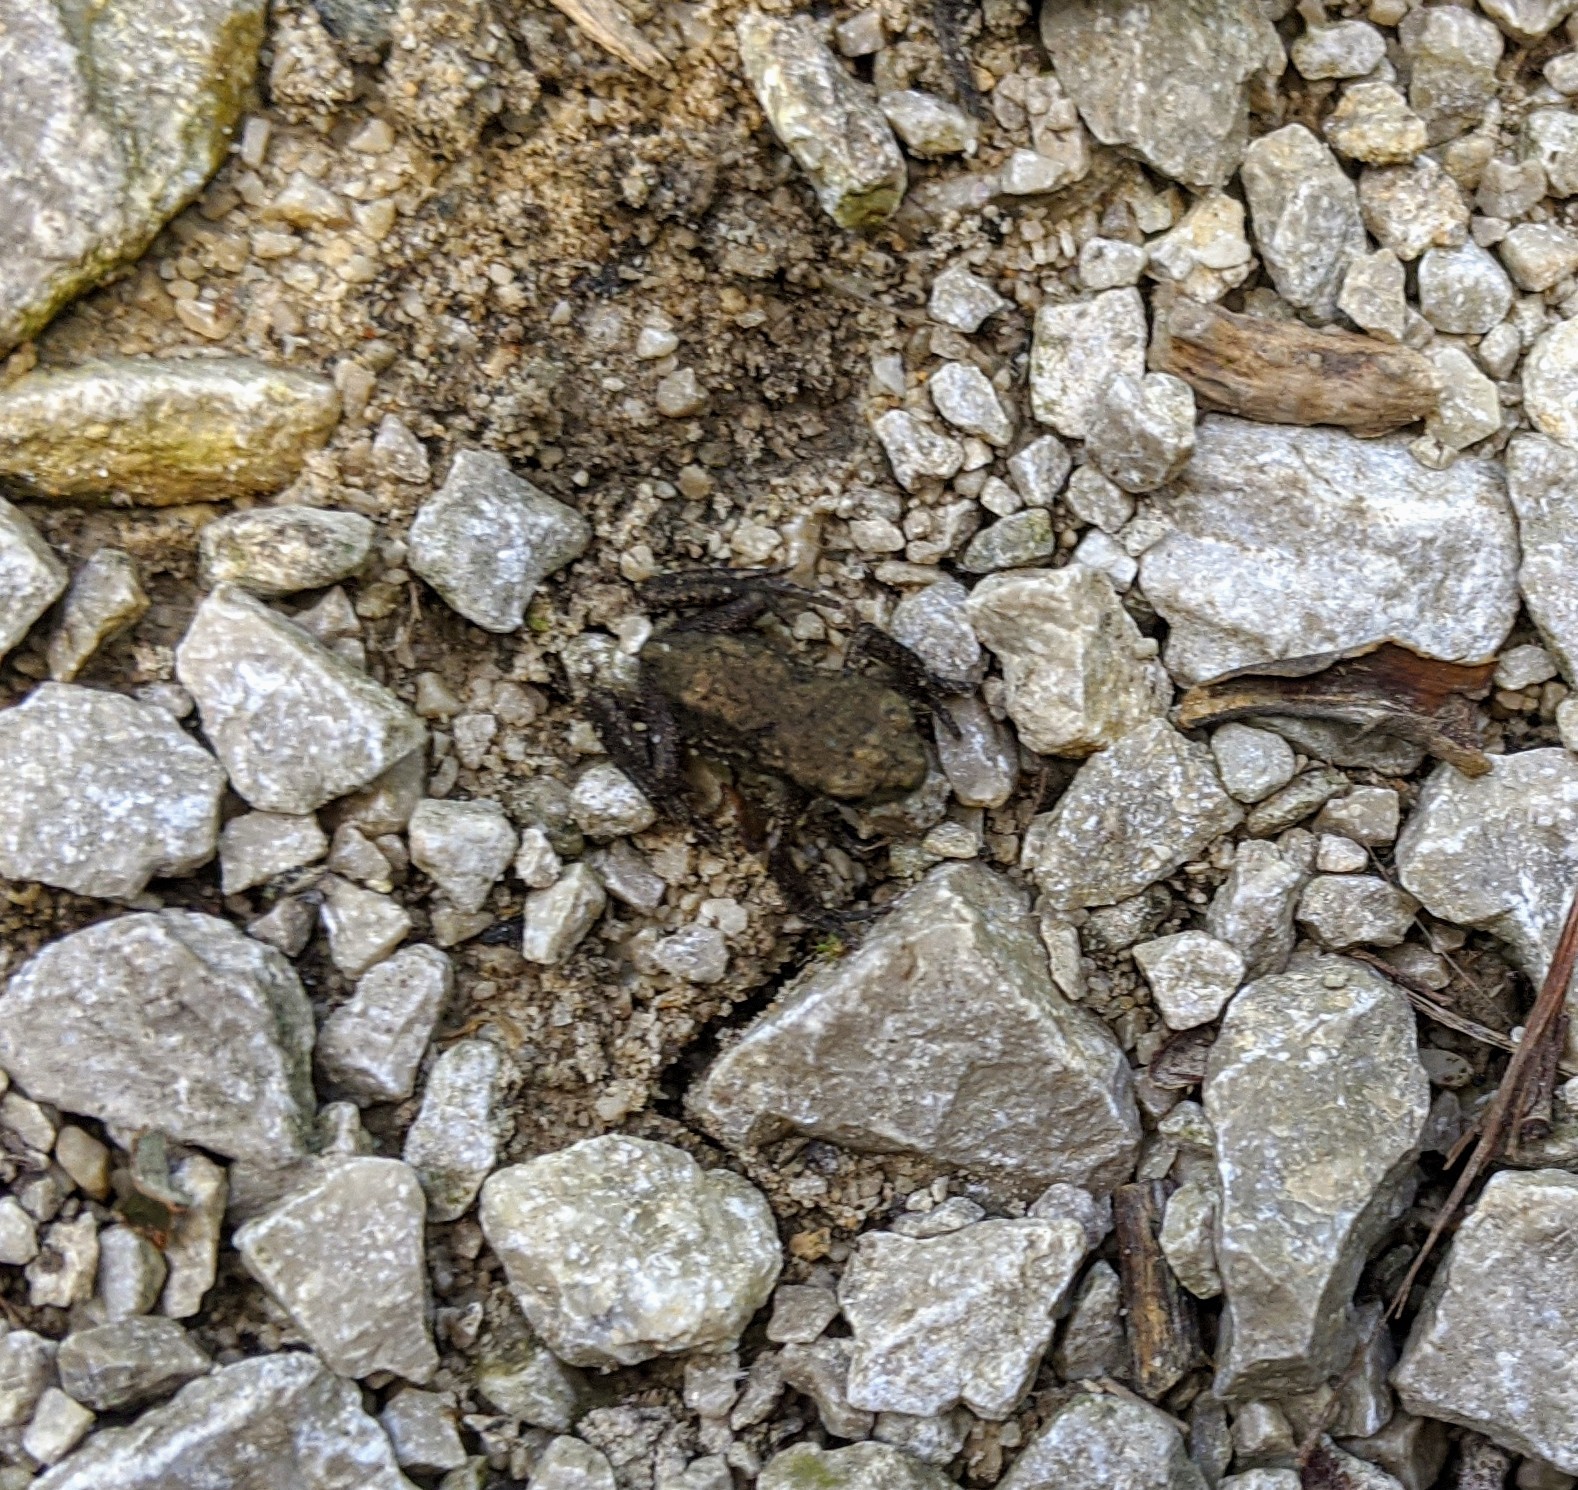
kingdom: Animalia
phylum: Chordata
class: Amphibia
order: Anura
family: Bufonidae
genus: Bufo
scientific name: Bufo bufo
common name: Common toad
